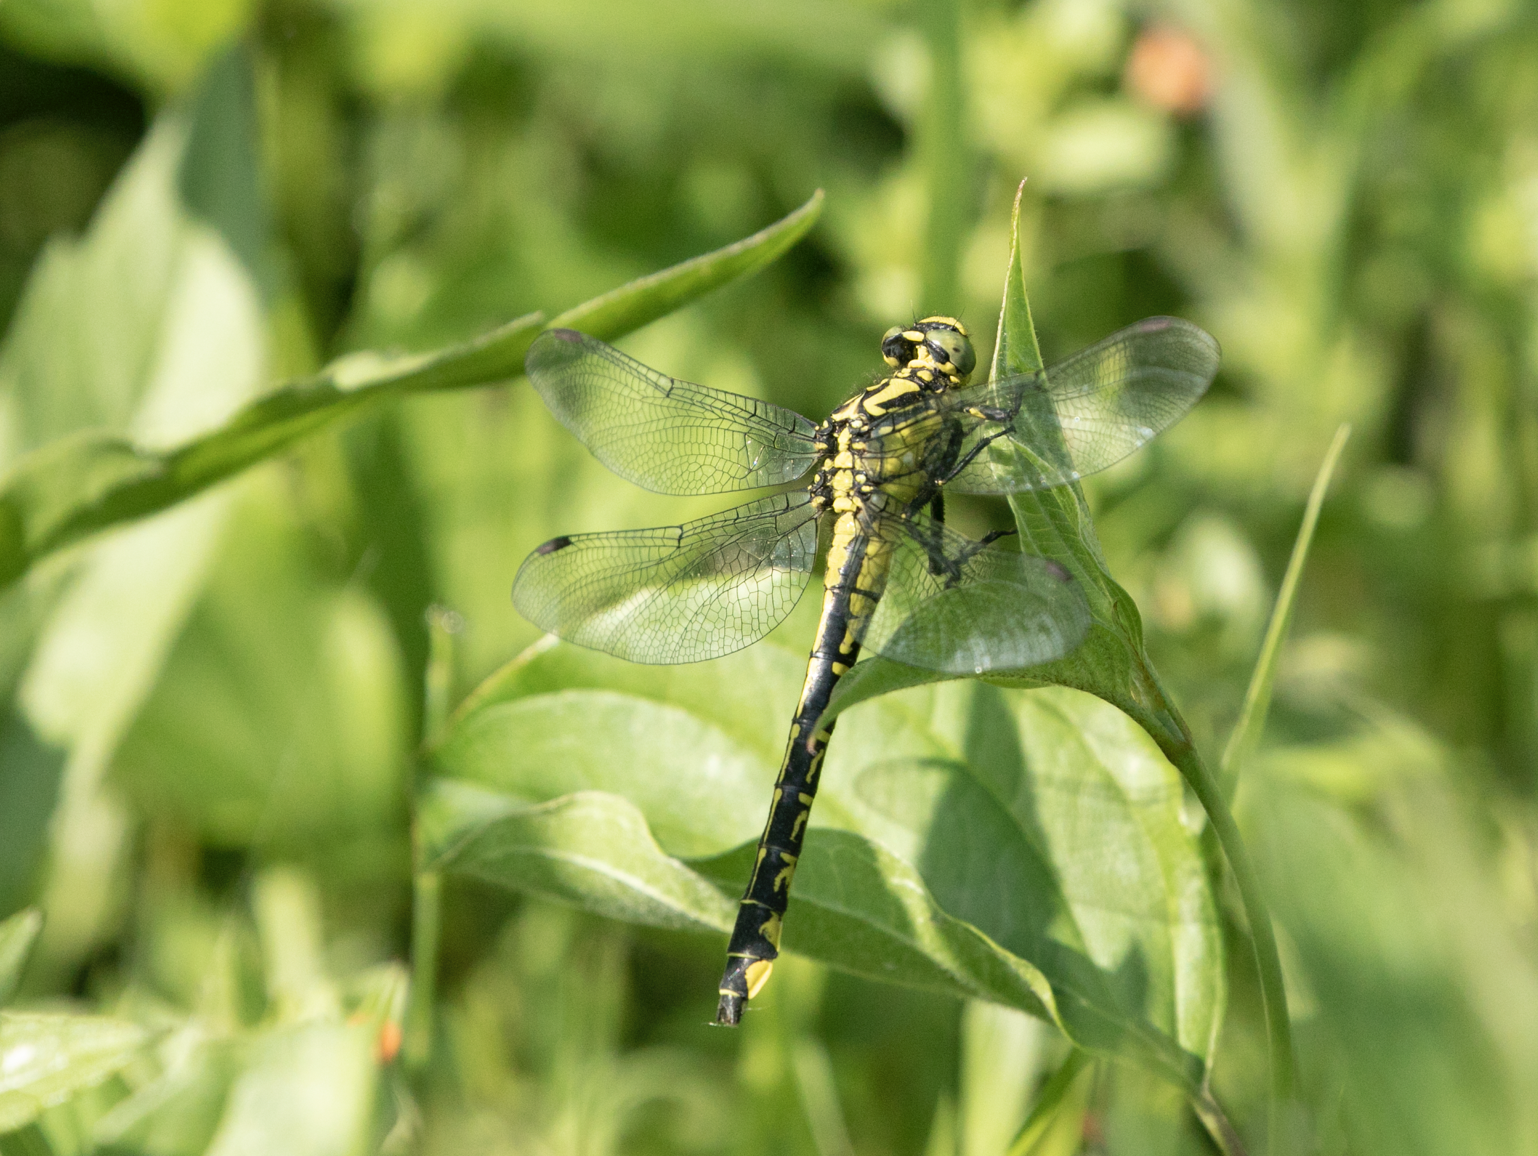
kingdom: Animalia
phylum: Arthropoda
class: Insecta
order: Odonata
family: Gomphidae
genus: Gomphus
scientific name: Gomphus vulgatissimus
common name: Club-tailed dragonfly
